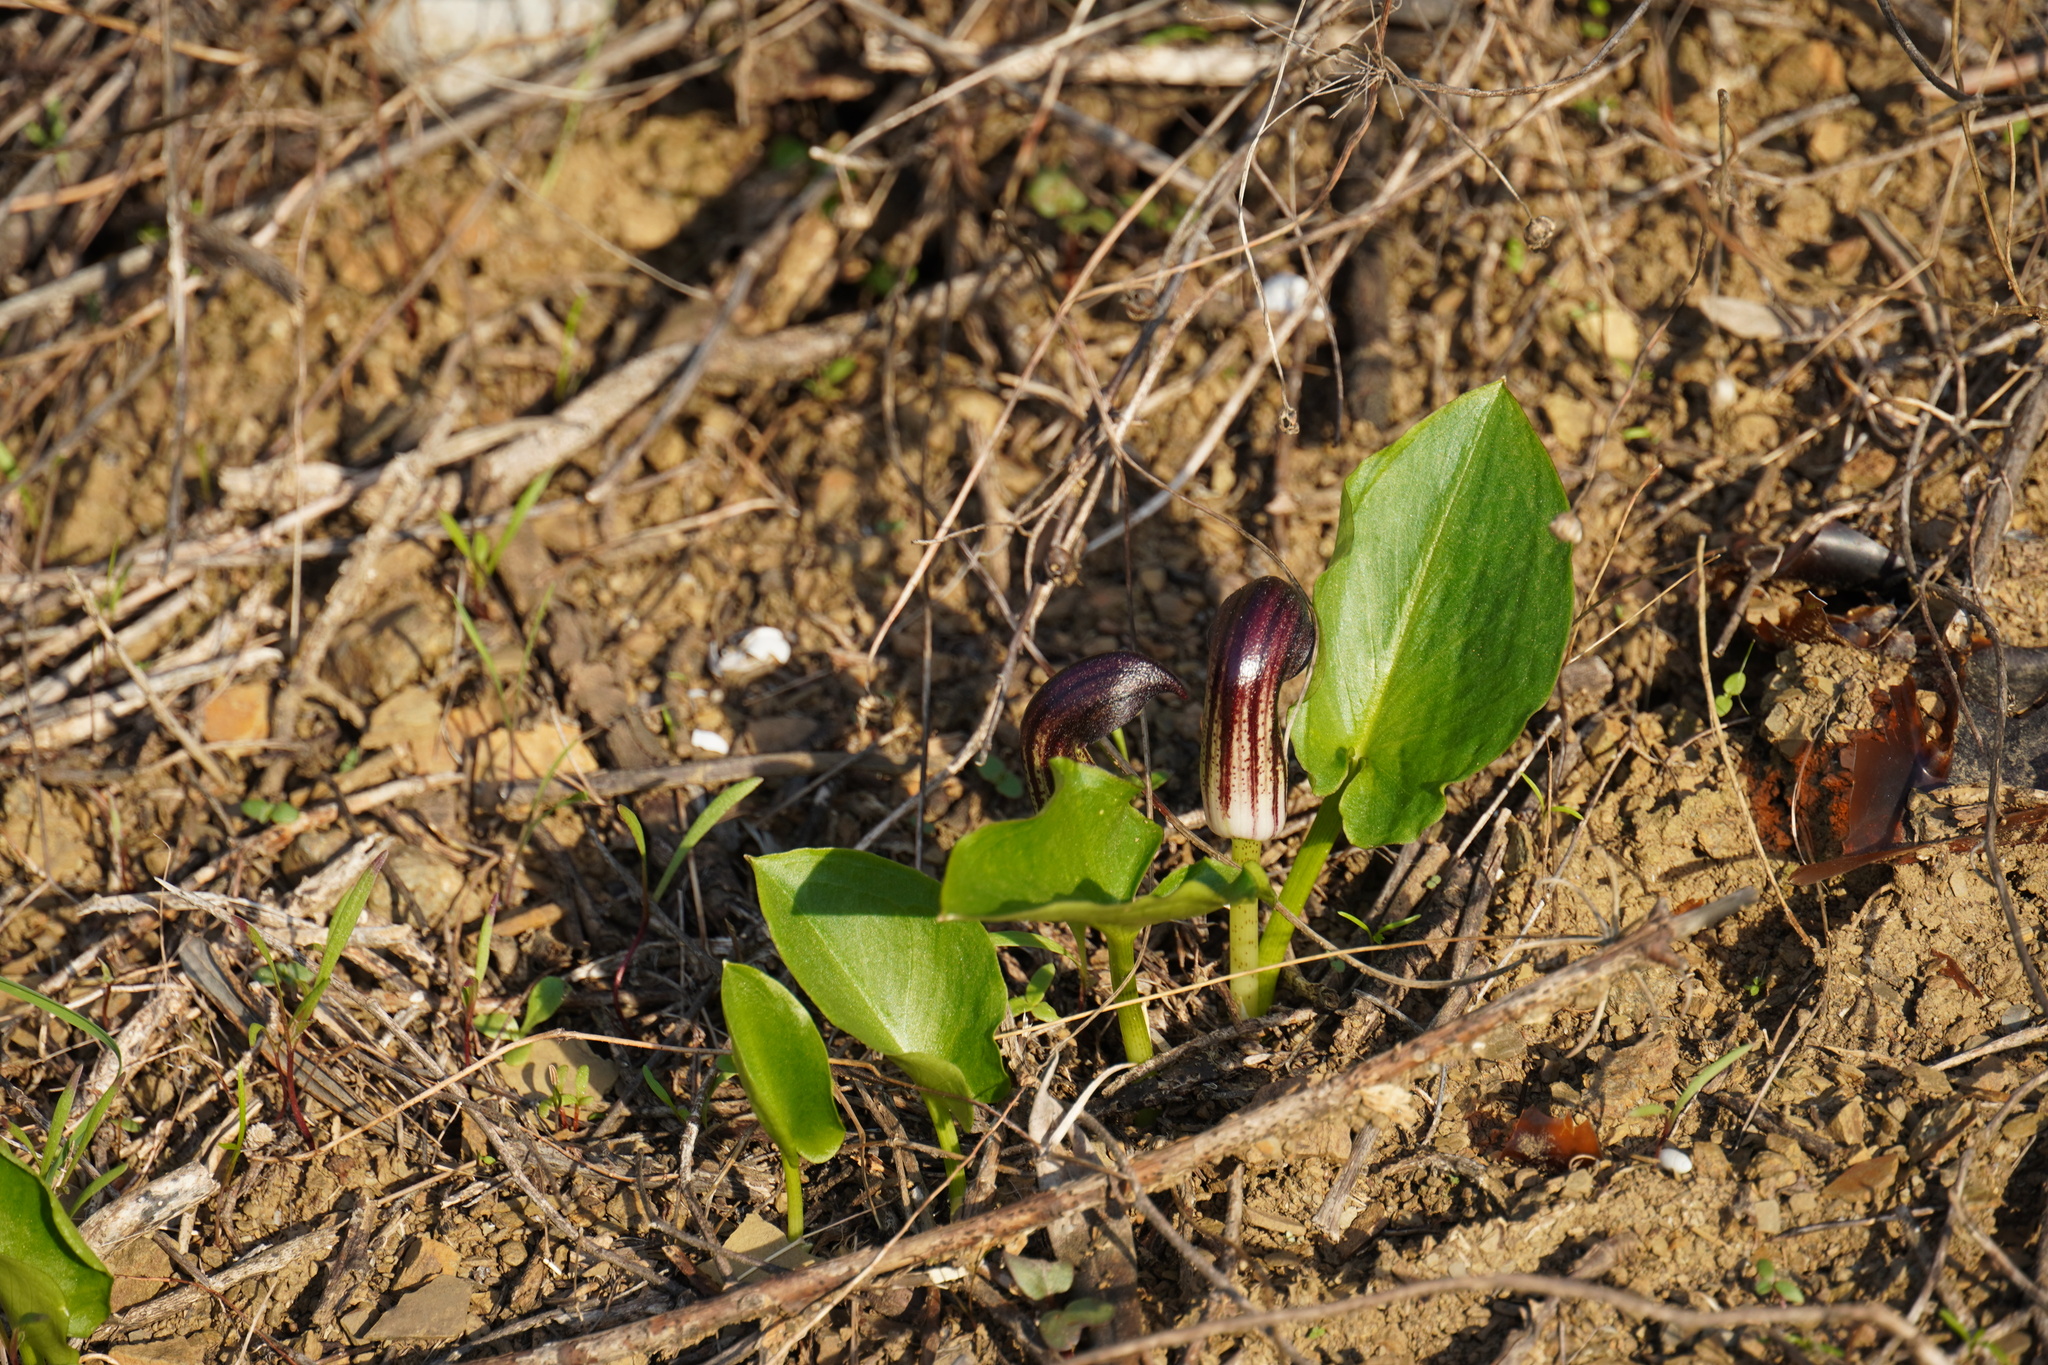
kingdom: Plantae
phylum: Tracheophyta
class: Liliopsida
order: Alismatales
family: Araceae
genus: Arisarum
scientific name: Arisarum simorrhinum
